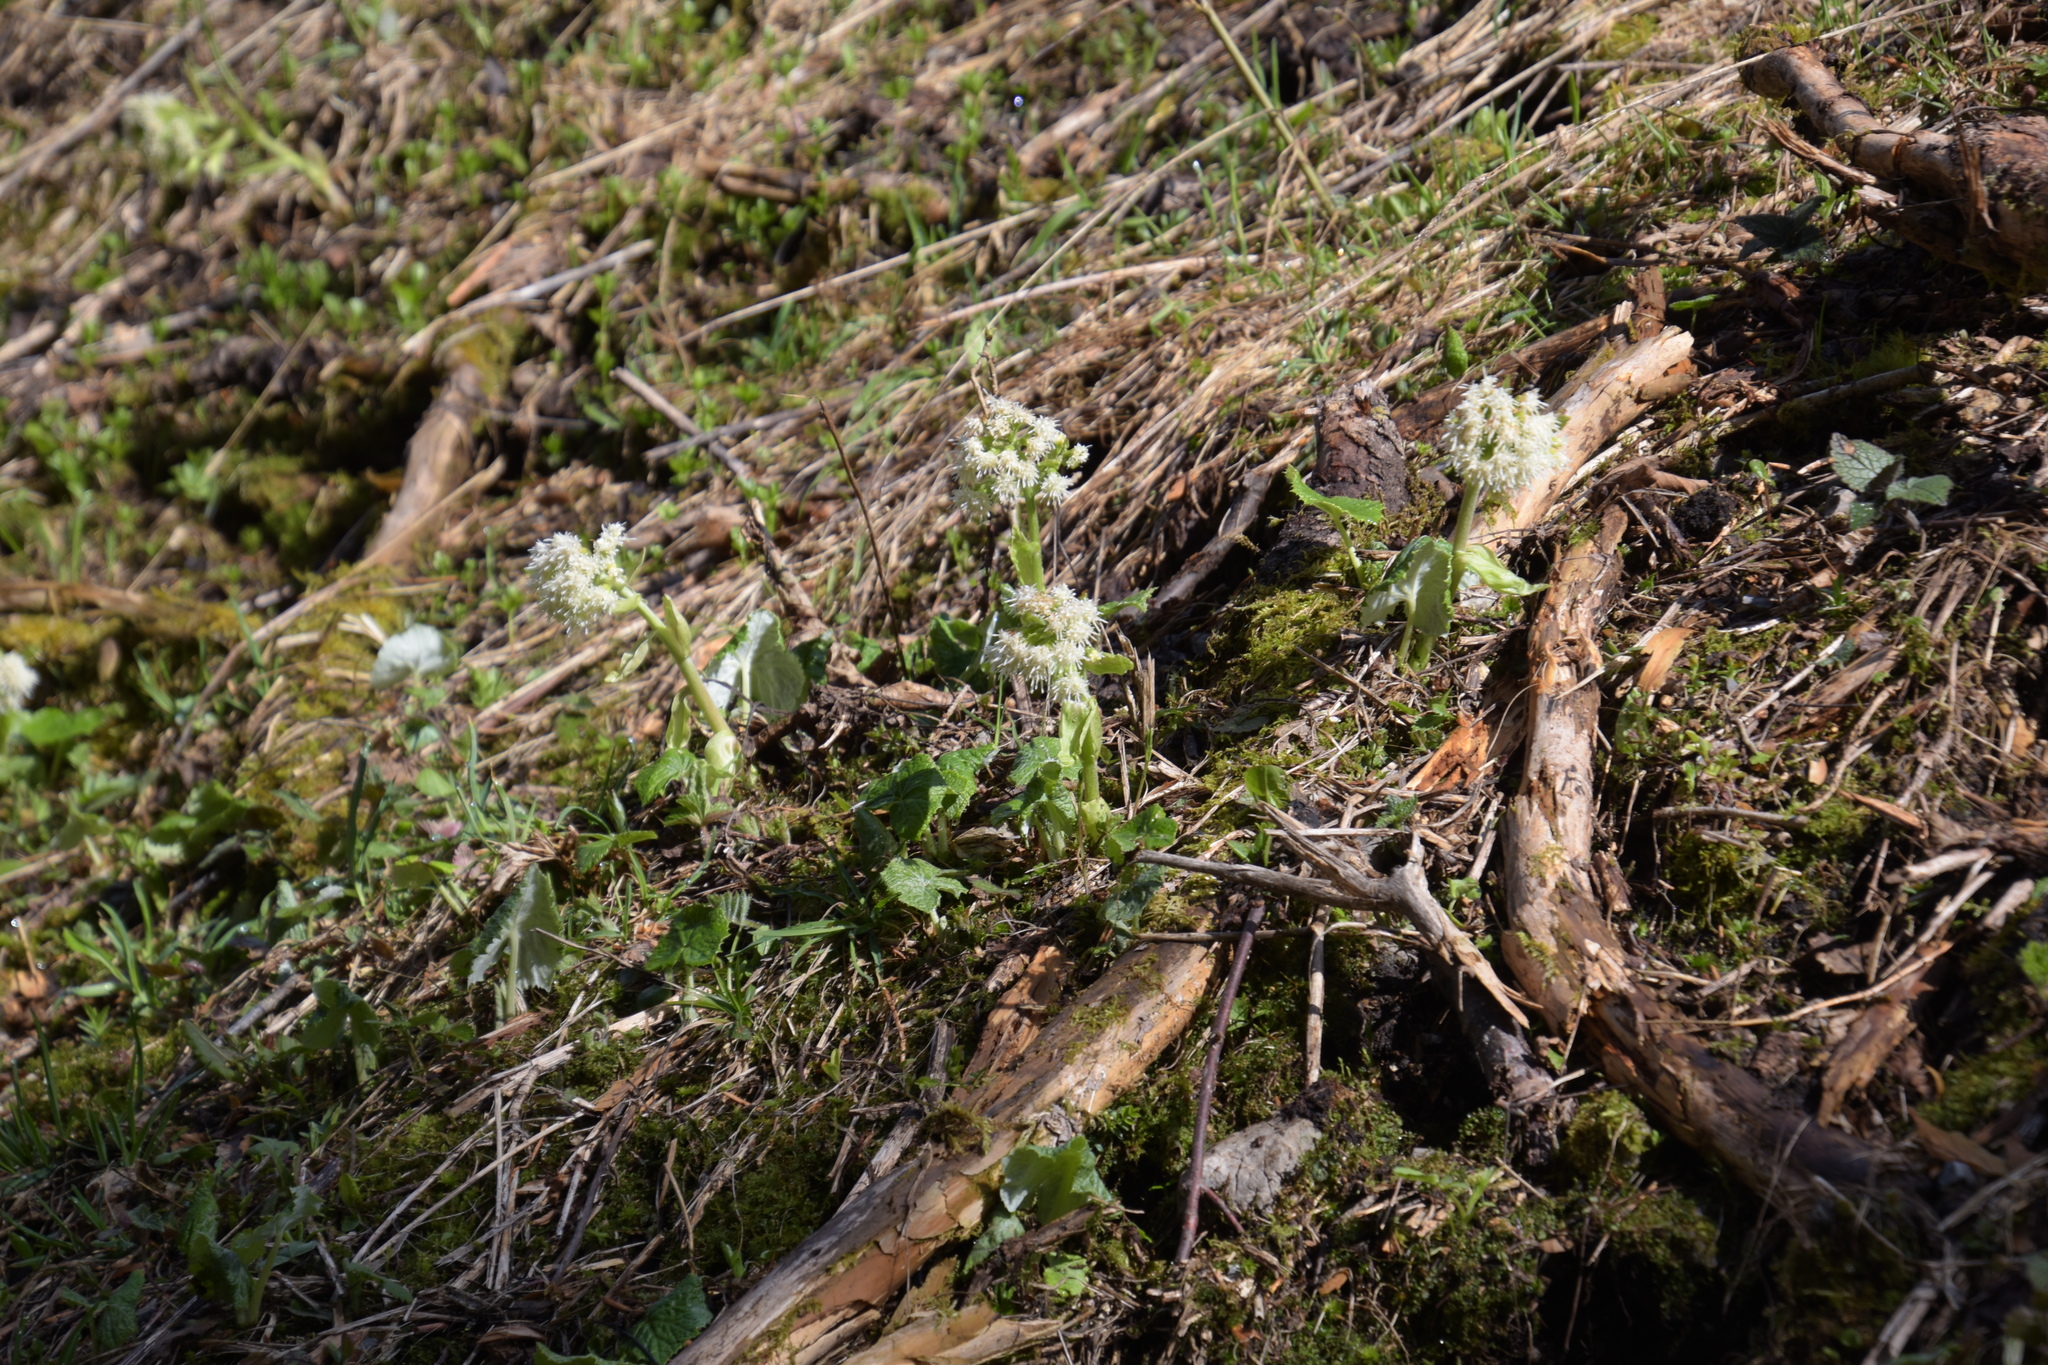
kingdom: Plantae
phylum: Tracheophyta
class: Magnoliopsida
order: Asterales
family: Asteraceae
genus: Petasites
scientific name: Petasites albus
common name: White butterbur
